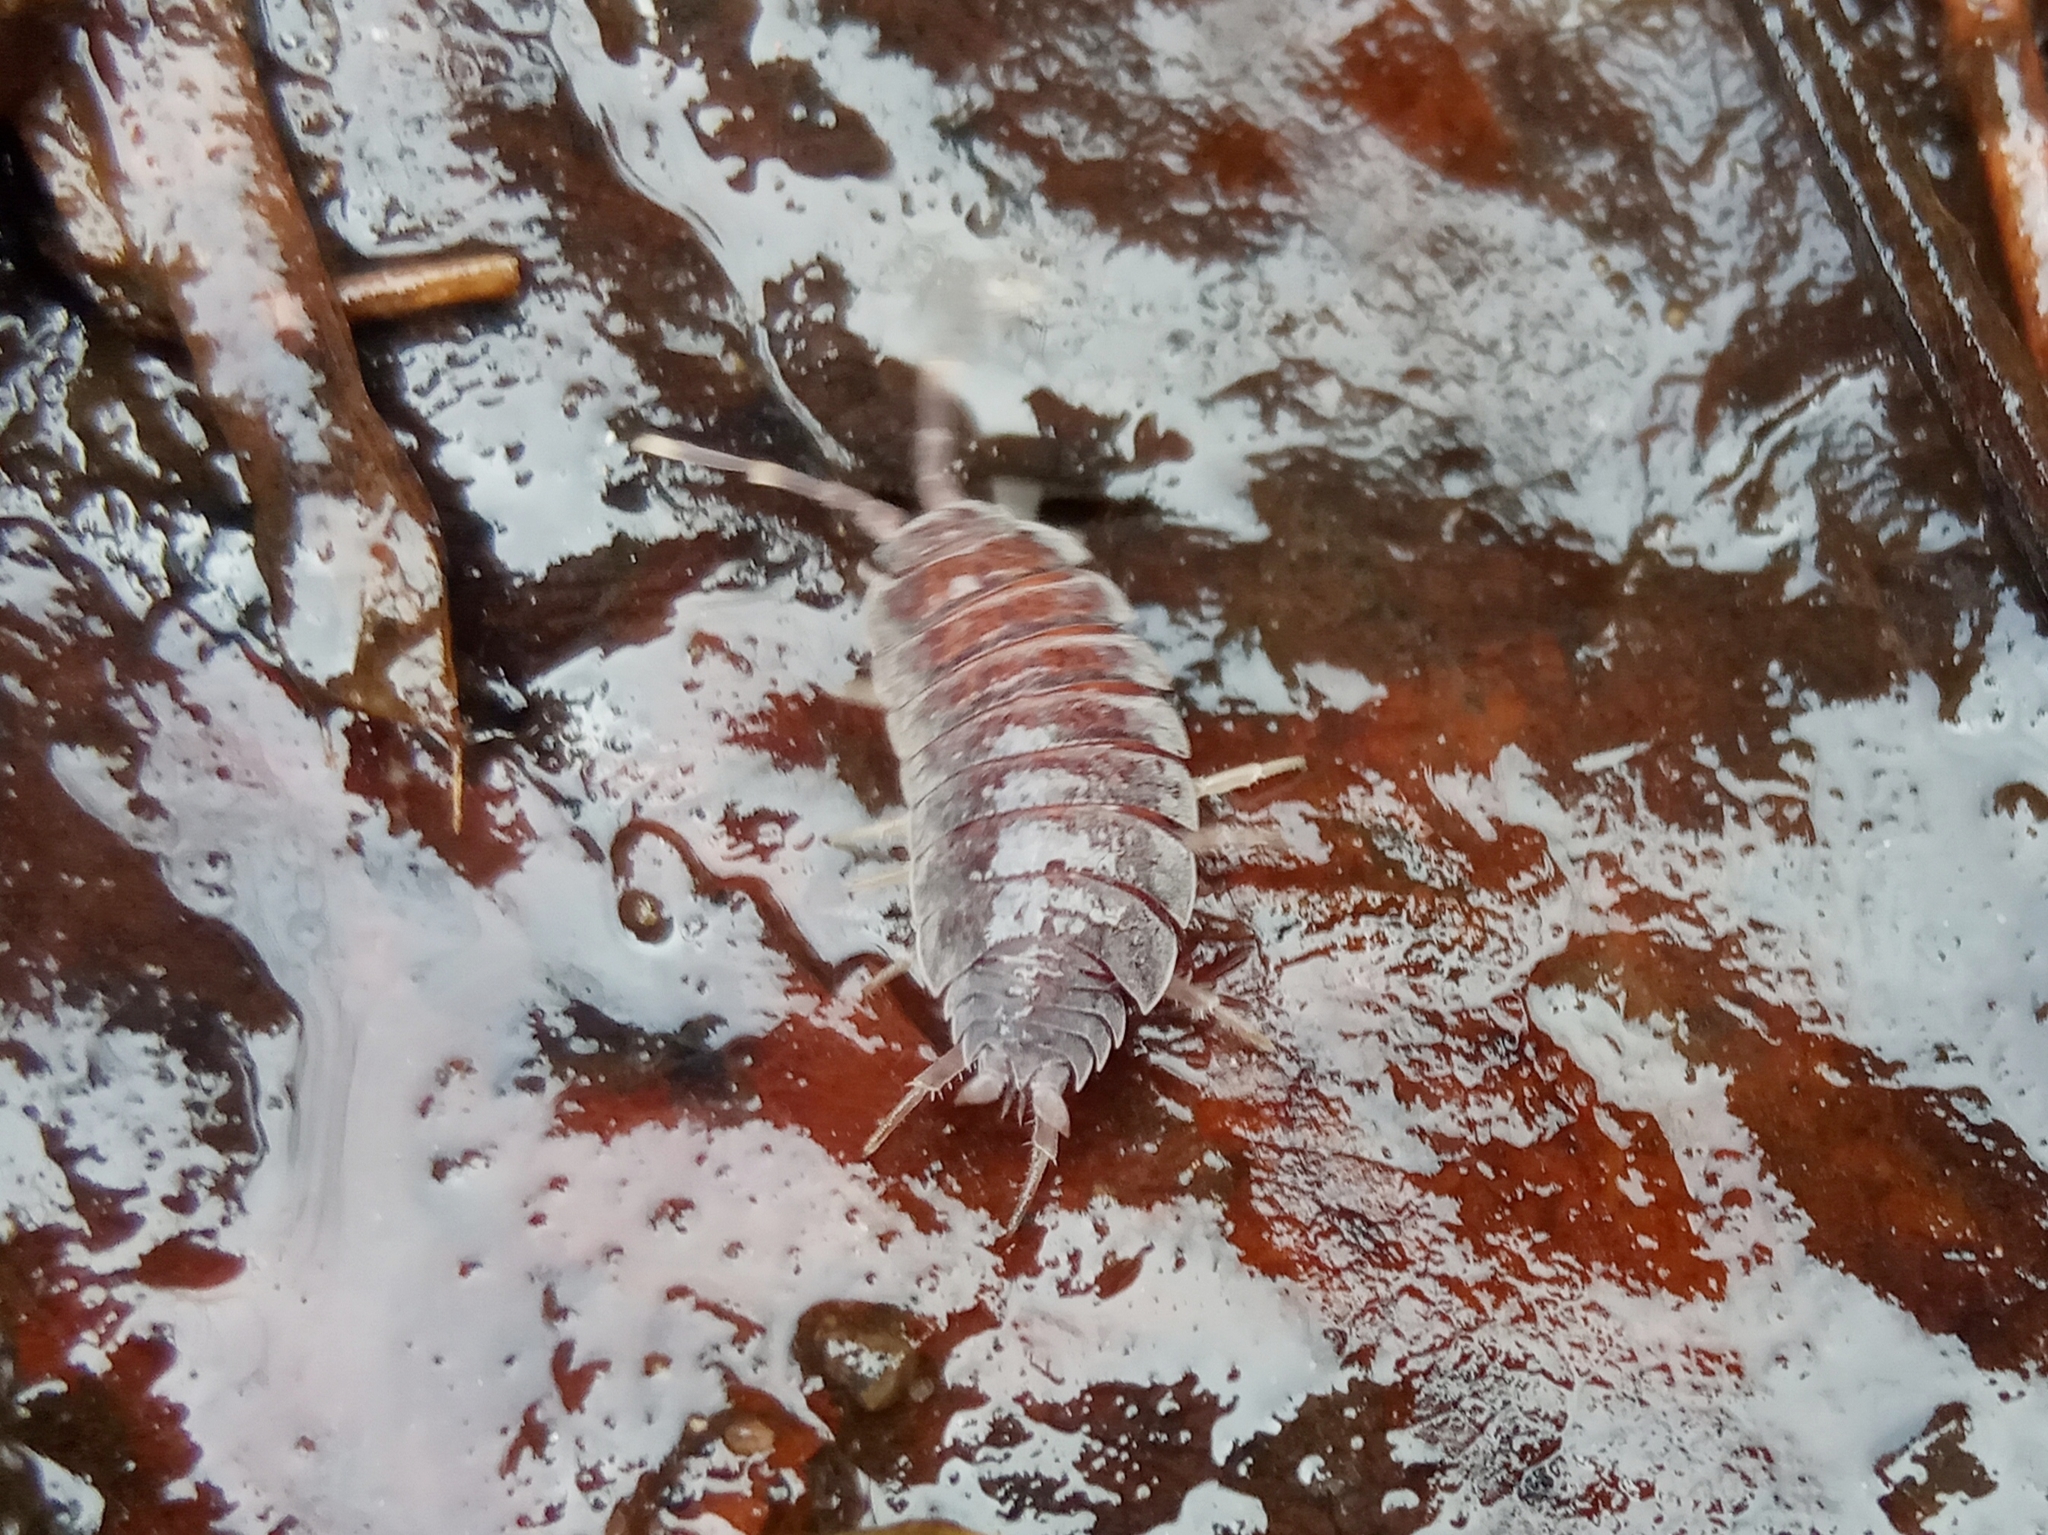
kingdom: Animalia
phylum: Arthropoda
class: Malacostraca
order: Isopoda
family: Porcellionidae
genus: Porcellionides
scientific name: Porcellionides
